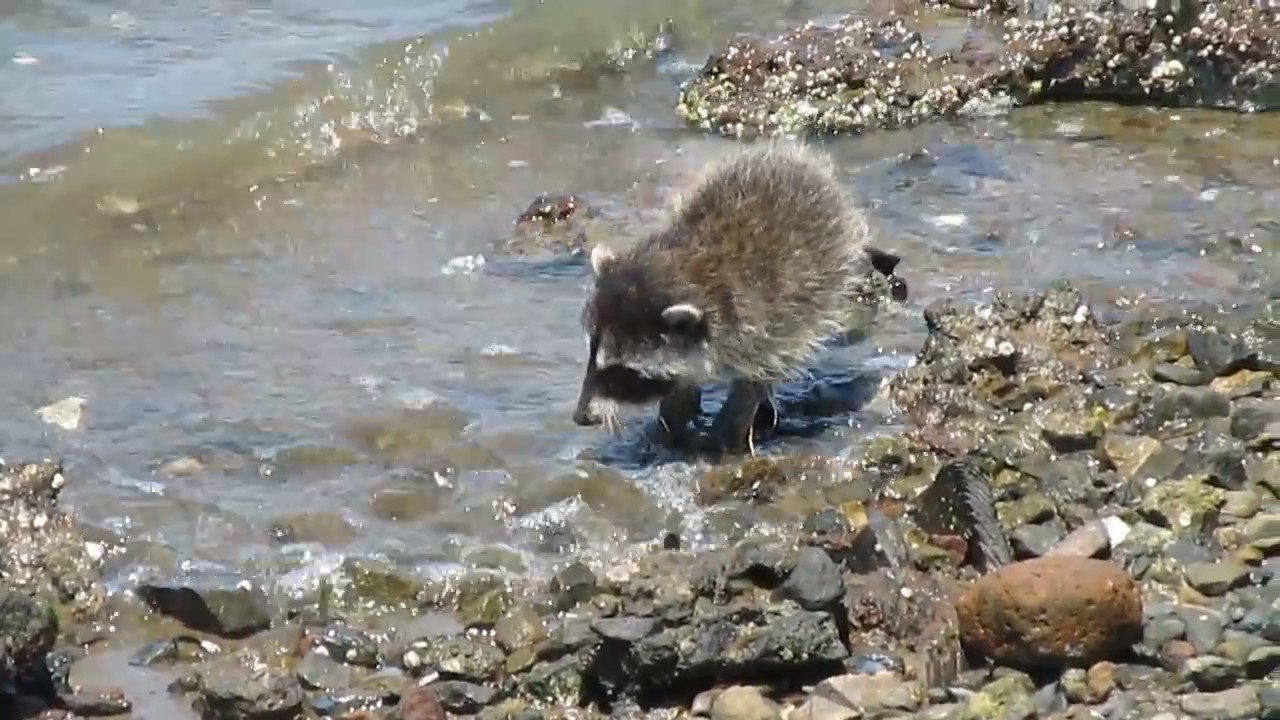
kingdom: Animalia
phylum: Chordata
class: Mammalia
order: Carnivora
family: Procyonidae
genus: Procyon
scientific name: Procyon lotor
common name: Raccoon
